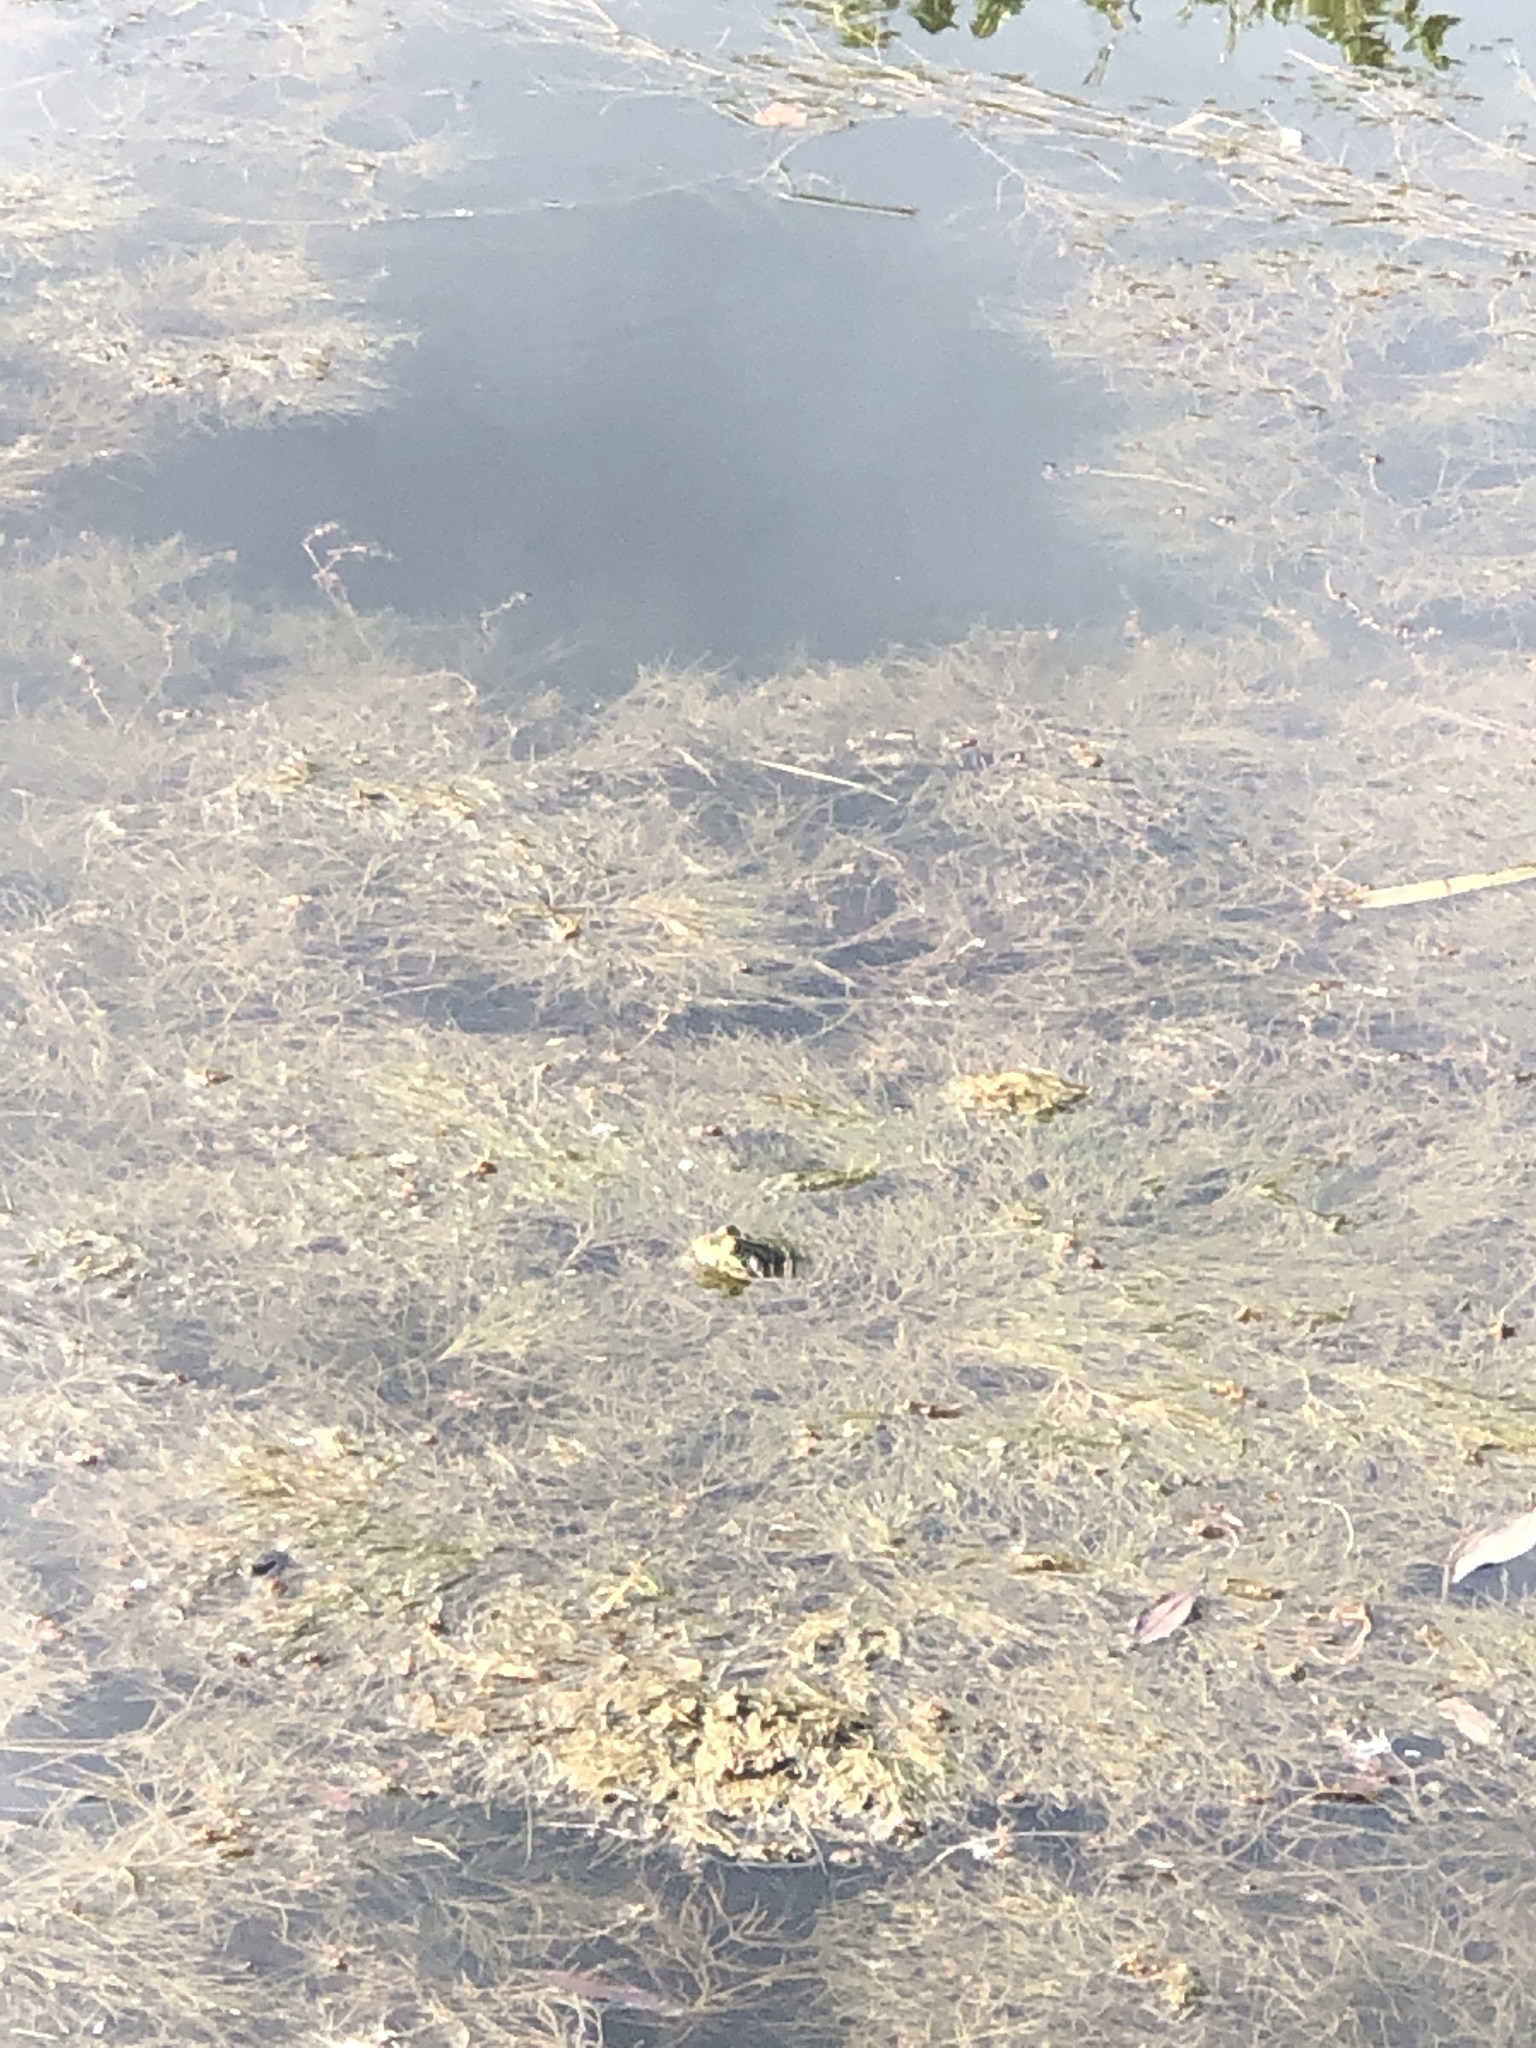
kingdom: Animalia
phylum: Chordata
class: Amphibia
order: Anura
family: Ranidae
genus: Lithobates
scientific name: Lithobates
